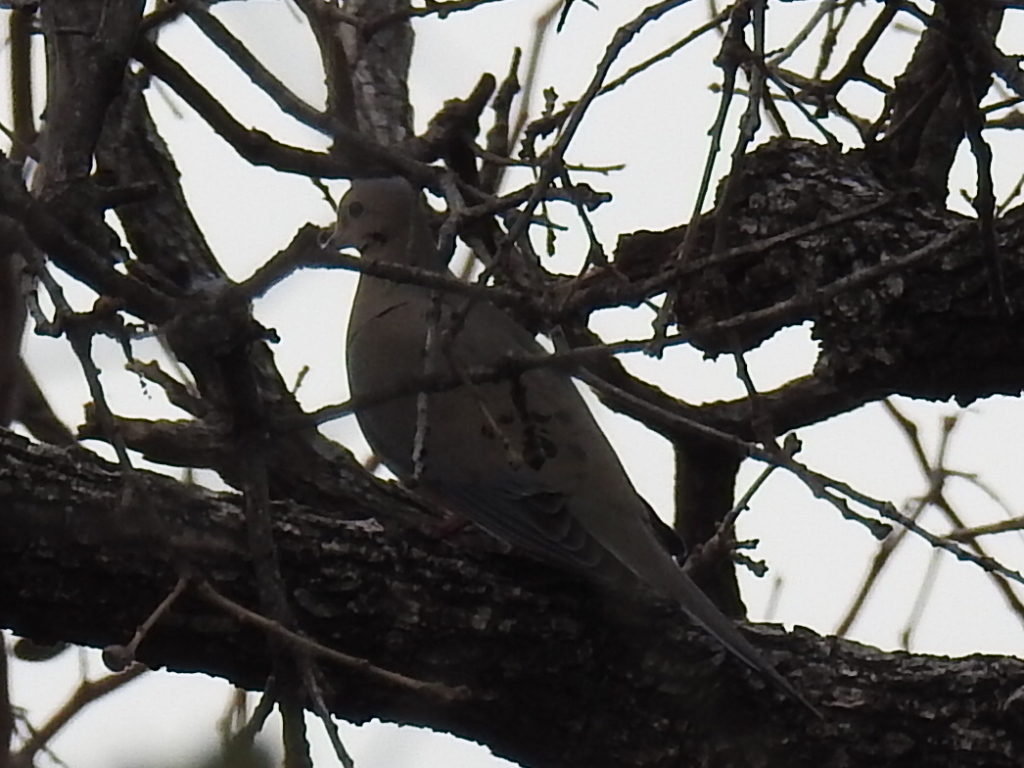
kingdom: Animalia
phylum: Chordata
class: Aves
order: Columbiformes
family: Columbidae
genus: Zenaida
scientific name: Zenaida macroura
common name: Mourning dove
